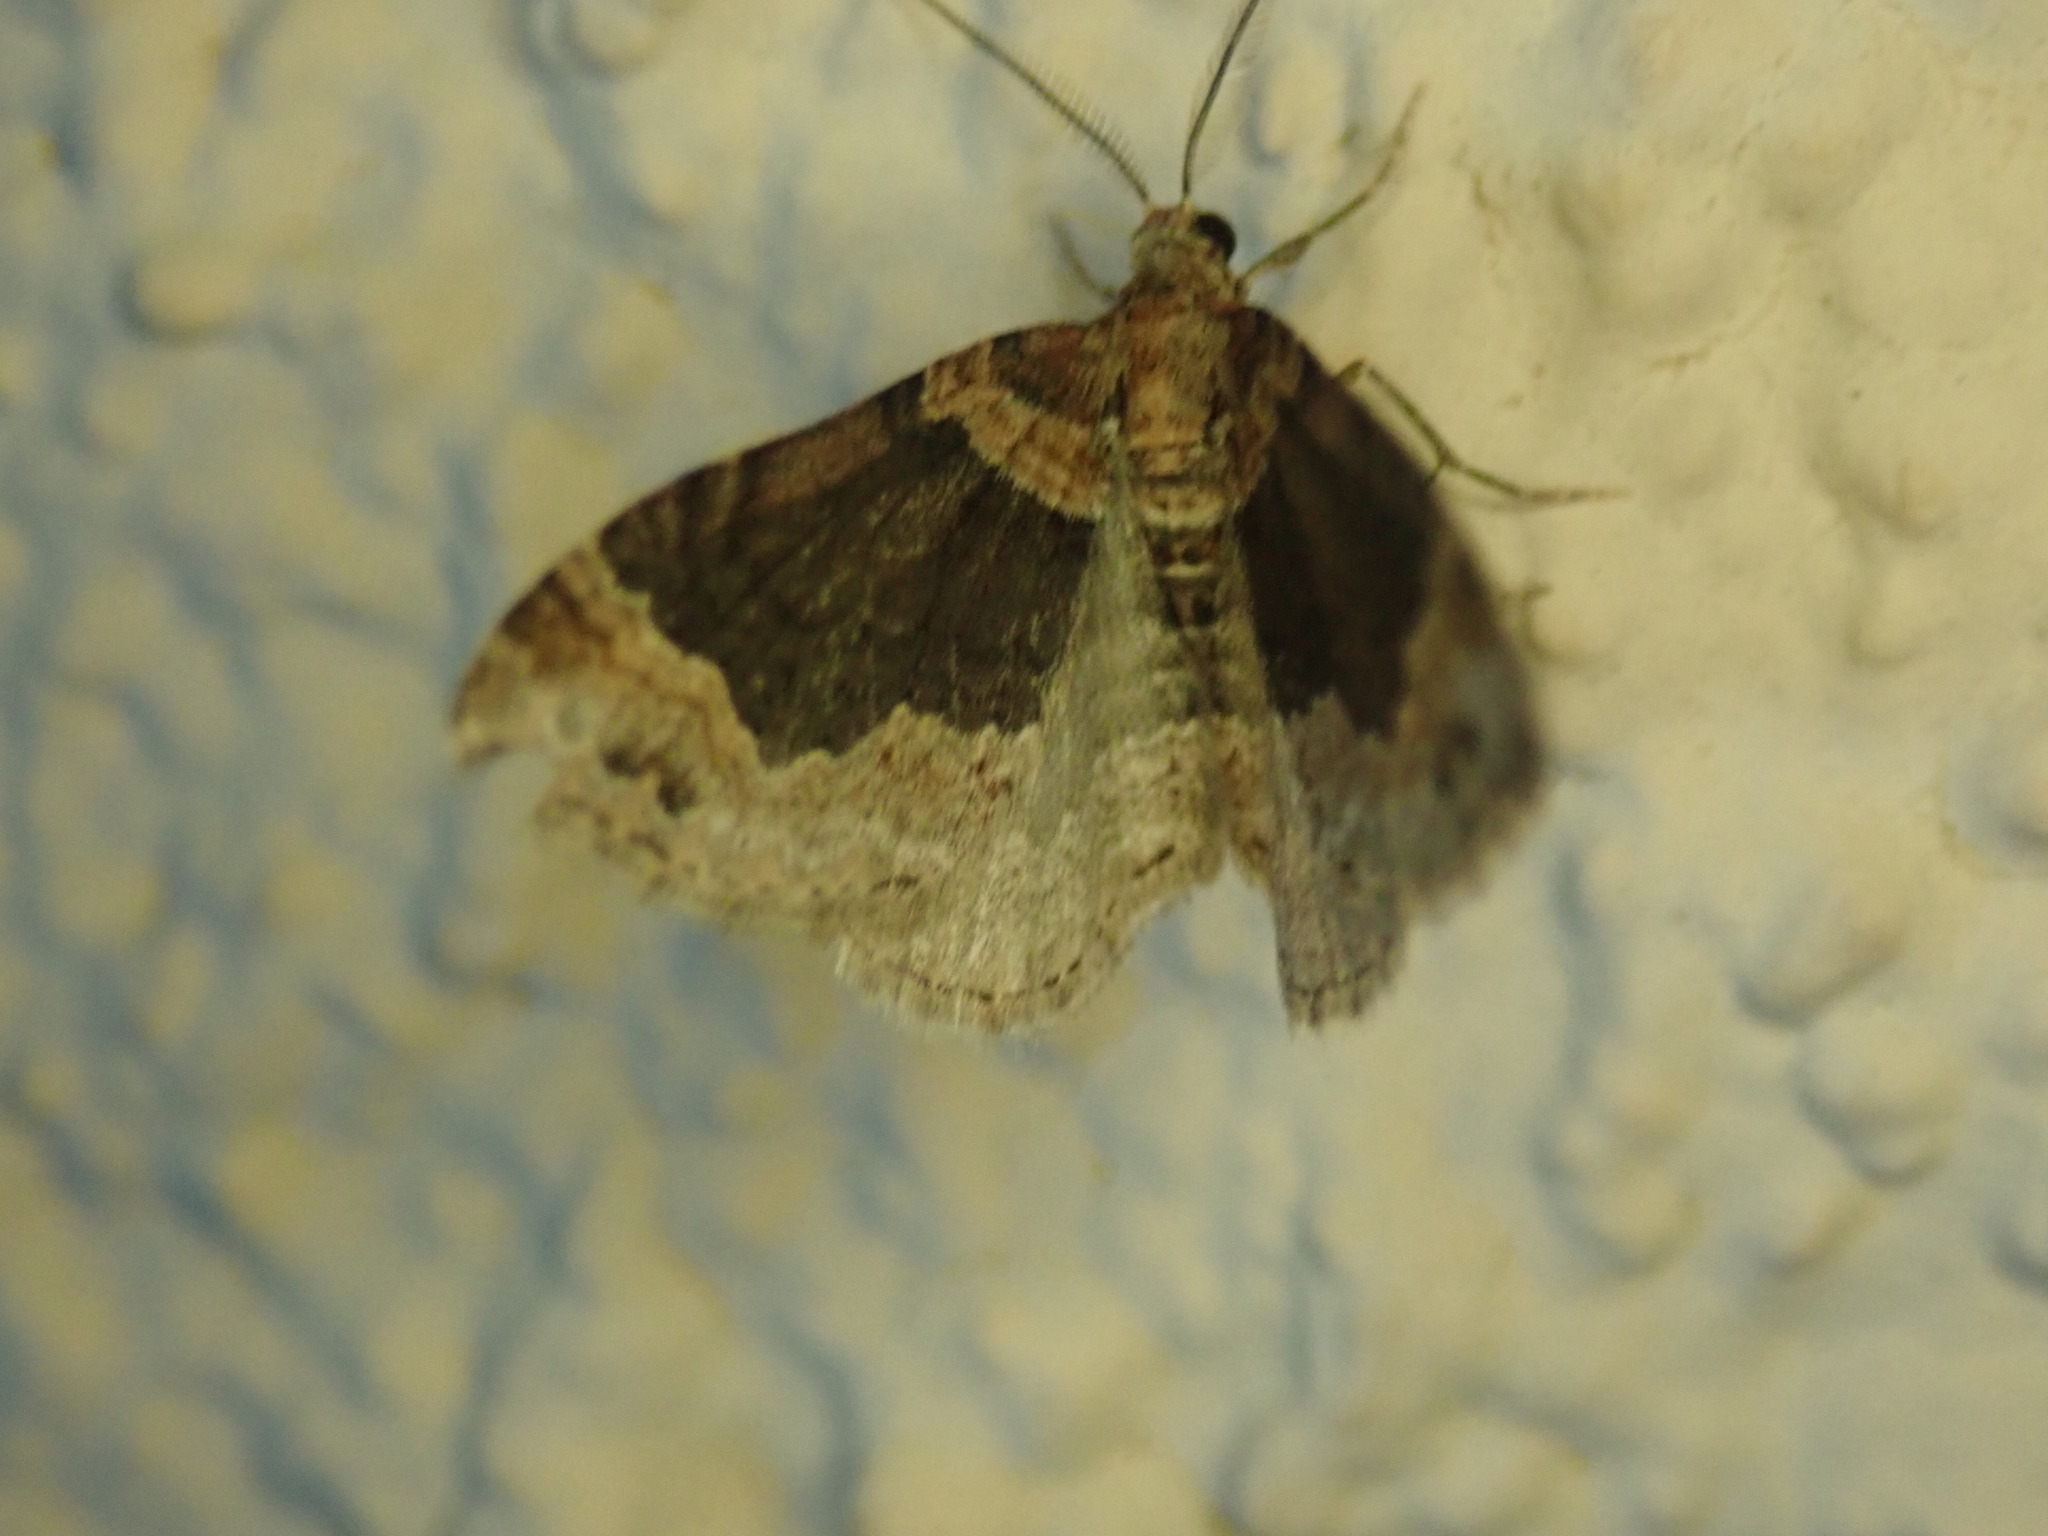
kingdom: Animalia
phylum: Arthropoda
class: Insecta
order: Lepidoptera
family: Geometridae
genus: Xanthorhoe
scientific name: Xanthorhoe ferrugata
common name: Dark-barred twin-spot carpet
